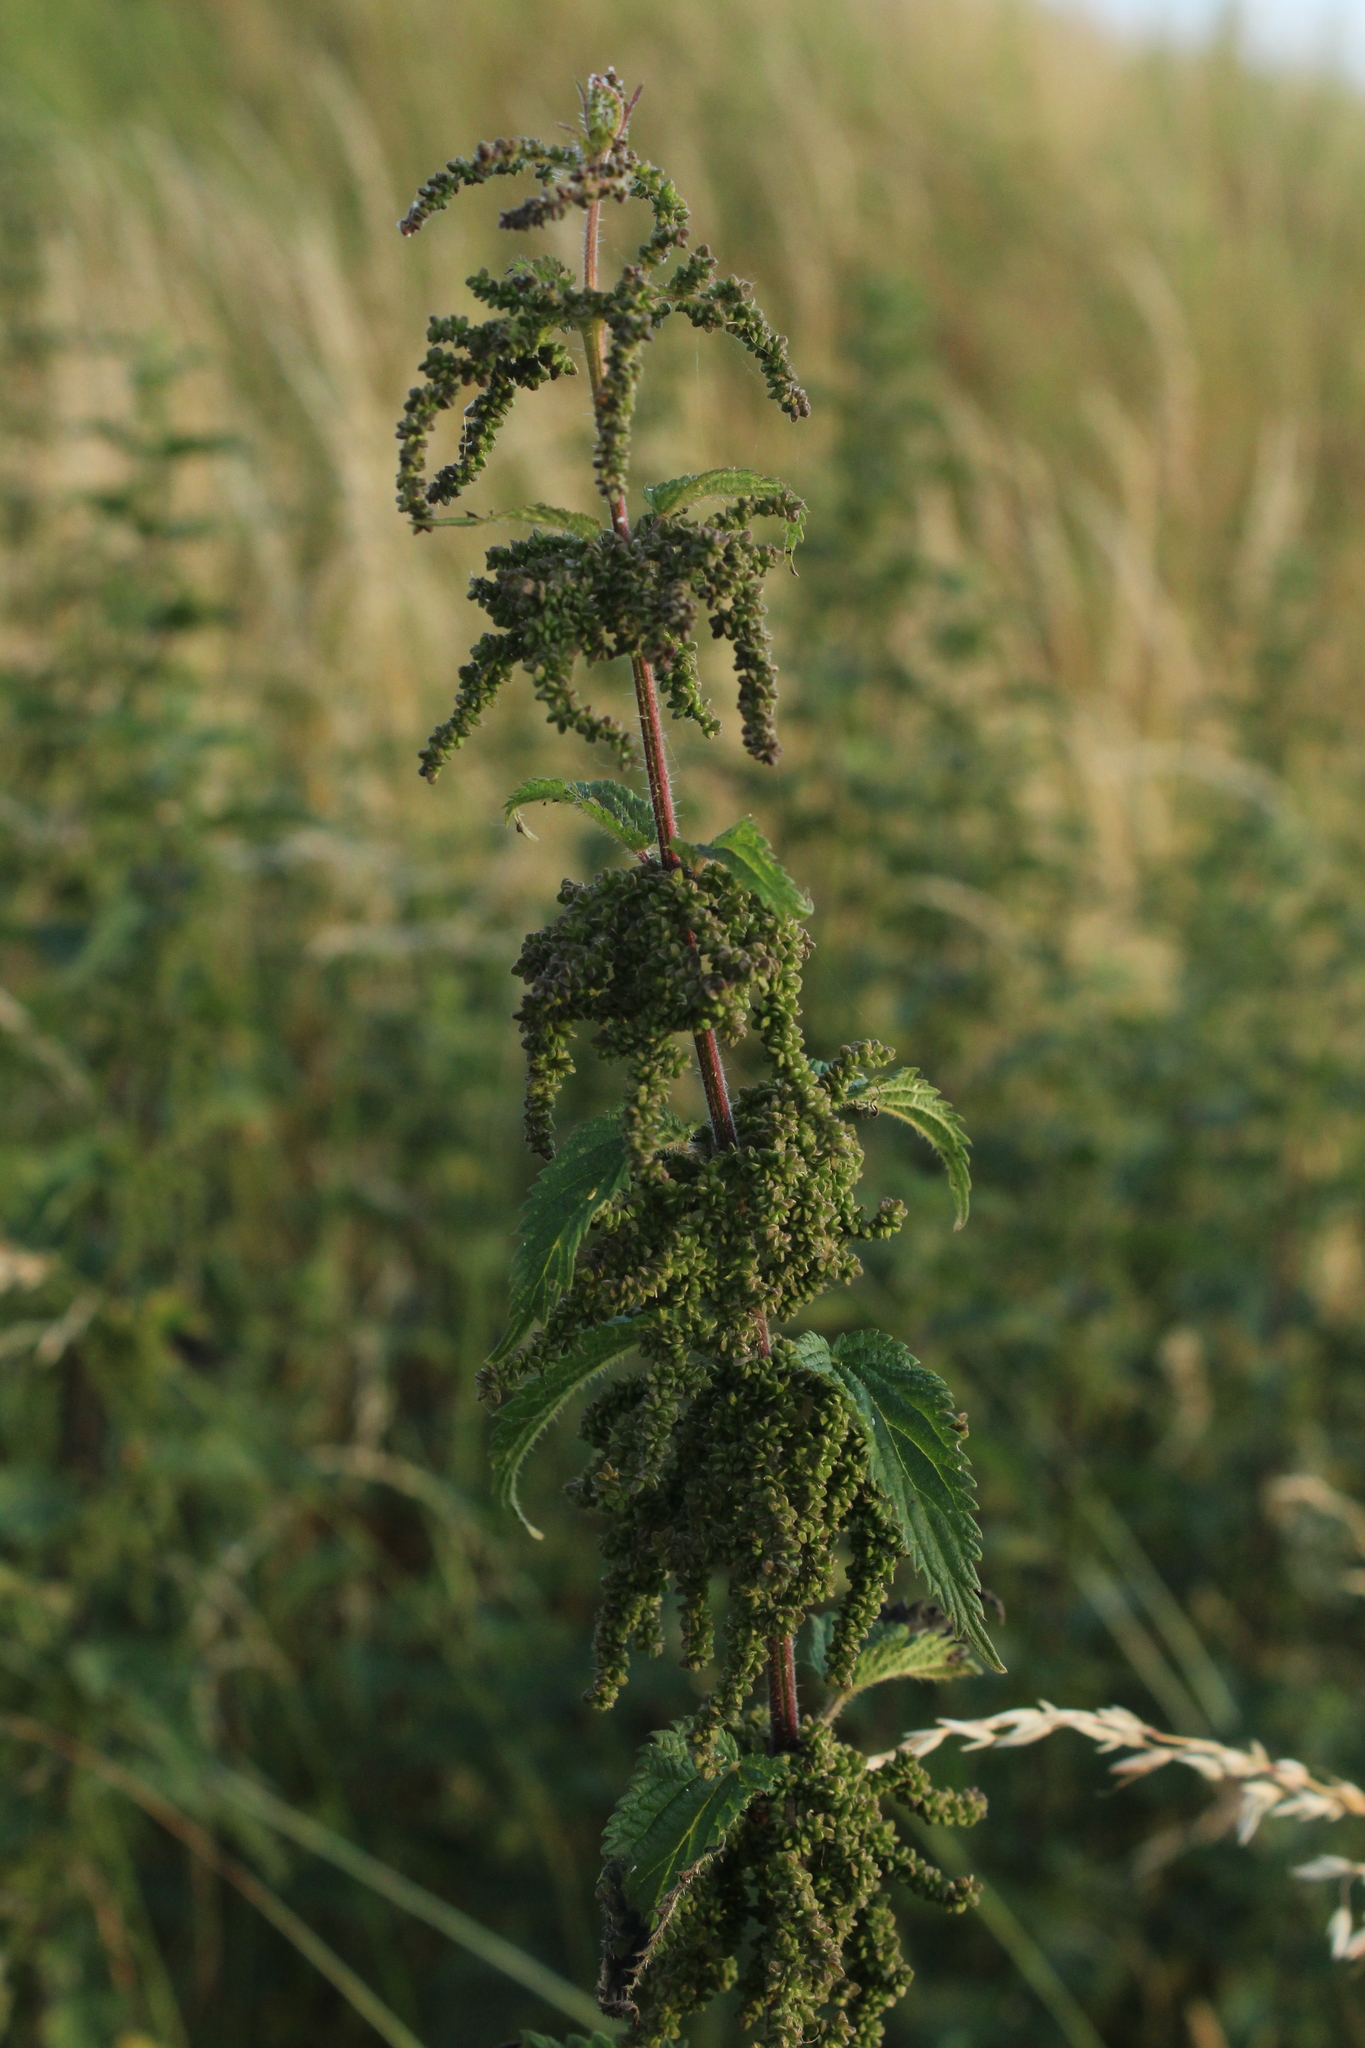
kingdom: Plantae
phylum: Tracheophyta
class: Magnoliopsida
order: Rosales
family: Urticaceae
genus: Urtica
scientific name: Urtica dioica
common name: Common nettle
